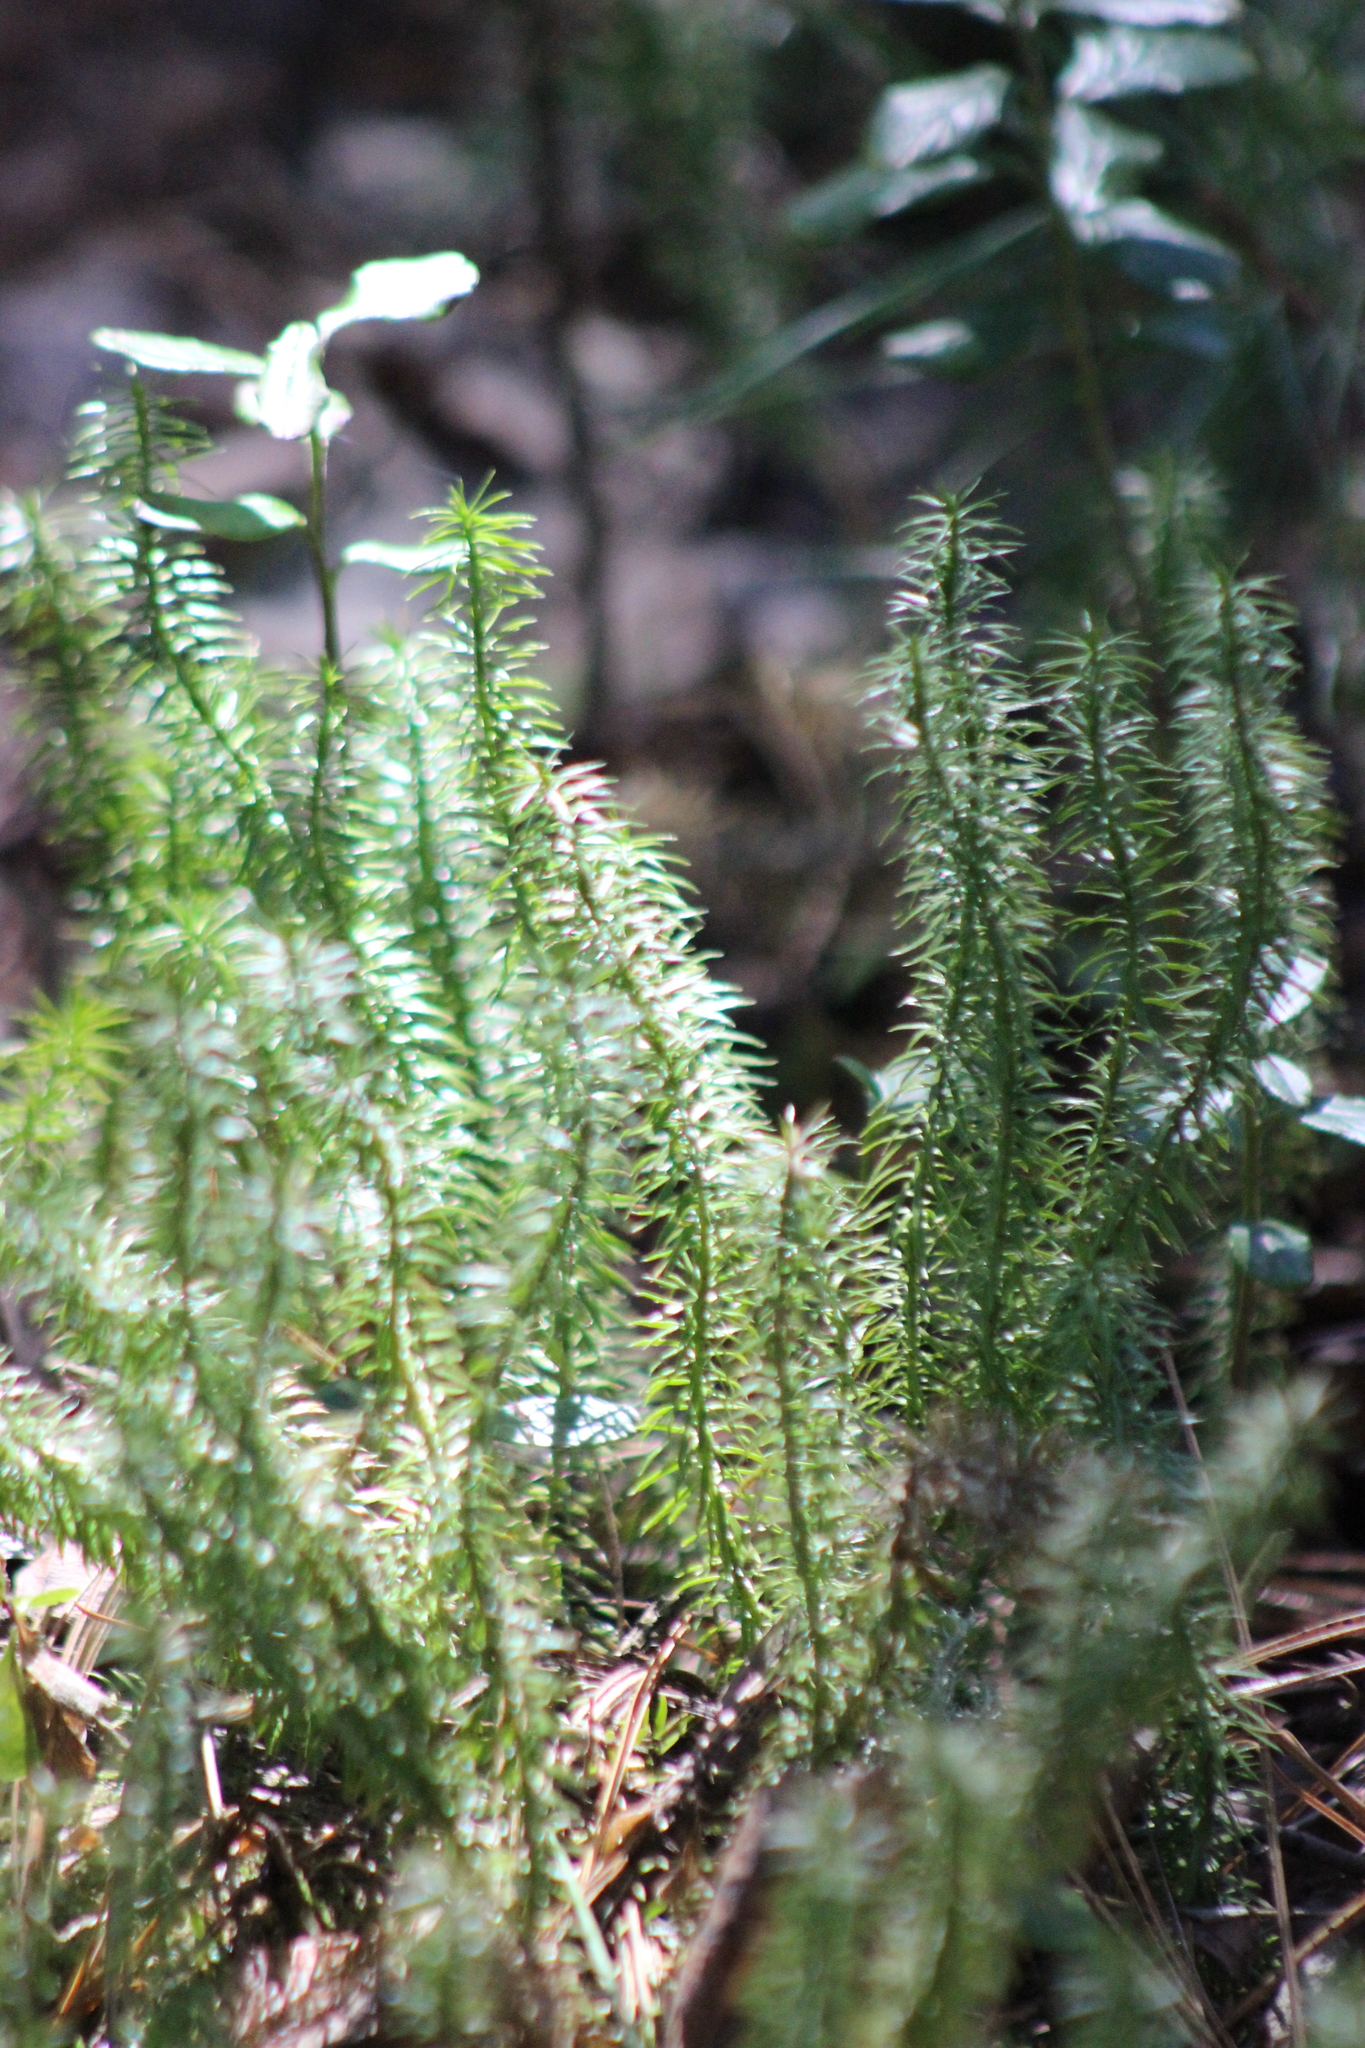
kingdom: Plantae
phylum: Tracheophyta
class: Lycopodiopsida
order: Lycopodiales
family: Lycopodiaceae
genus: Spinulum
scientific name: Spinulum annotinum
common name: Interrupted club-moss
